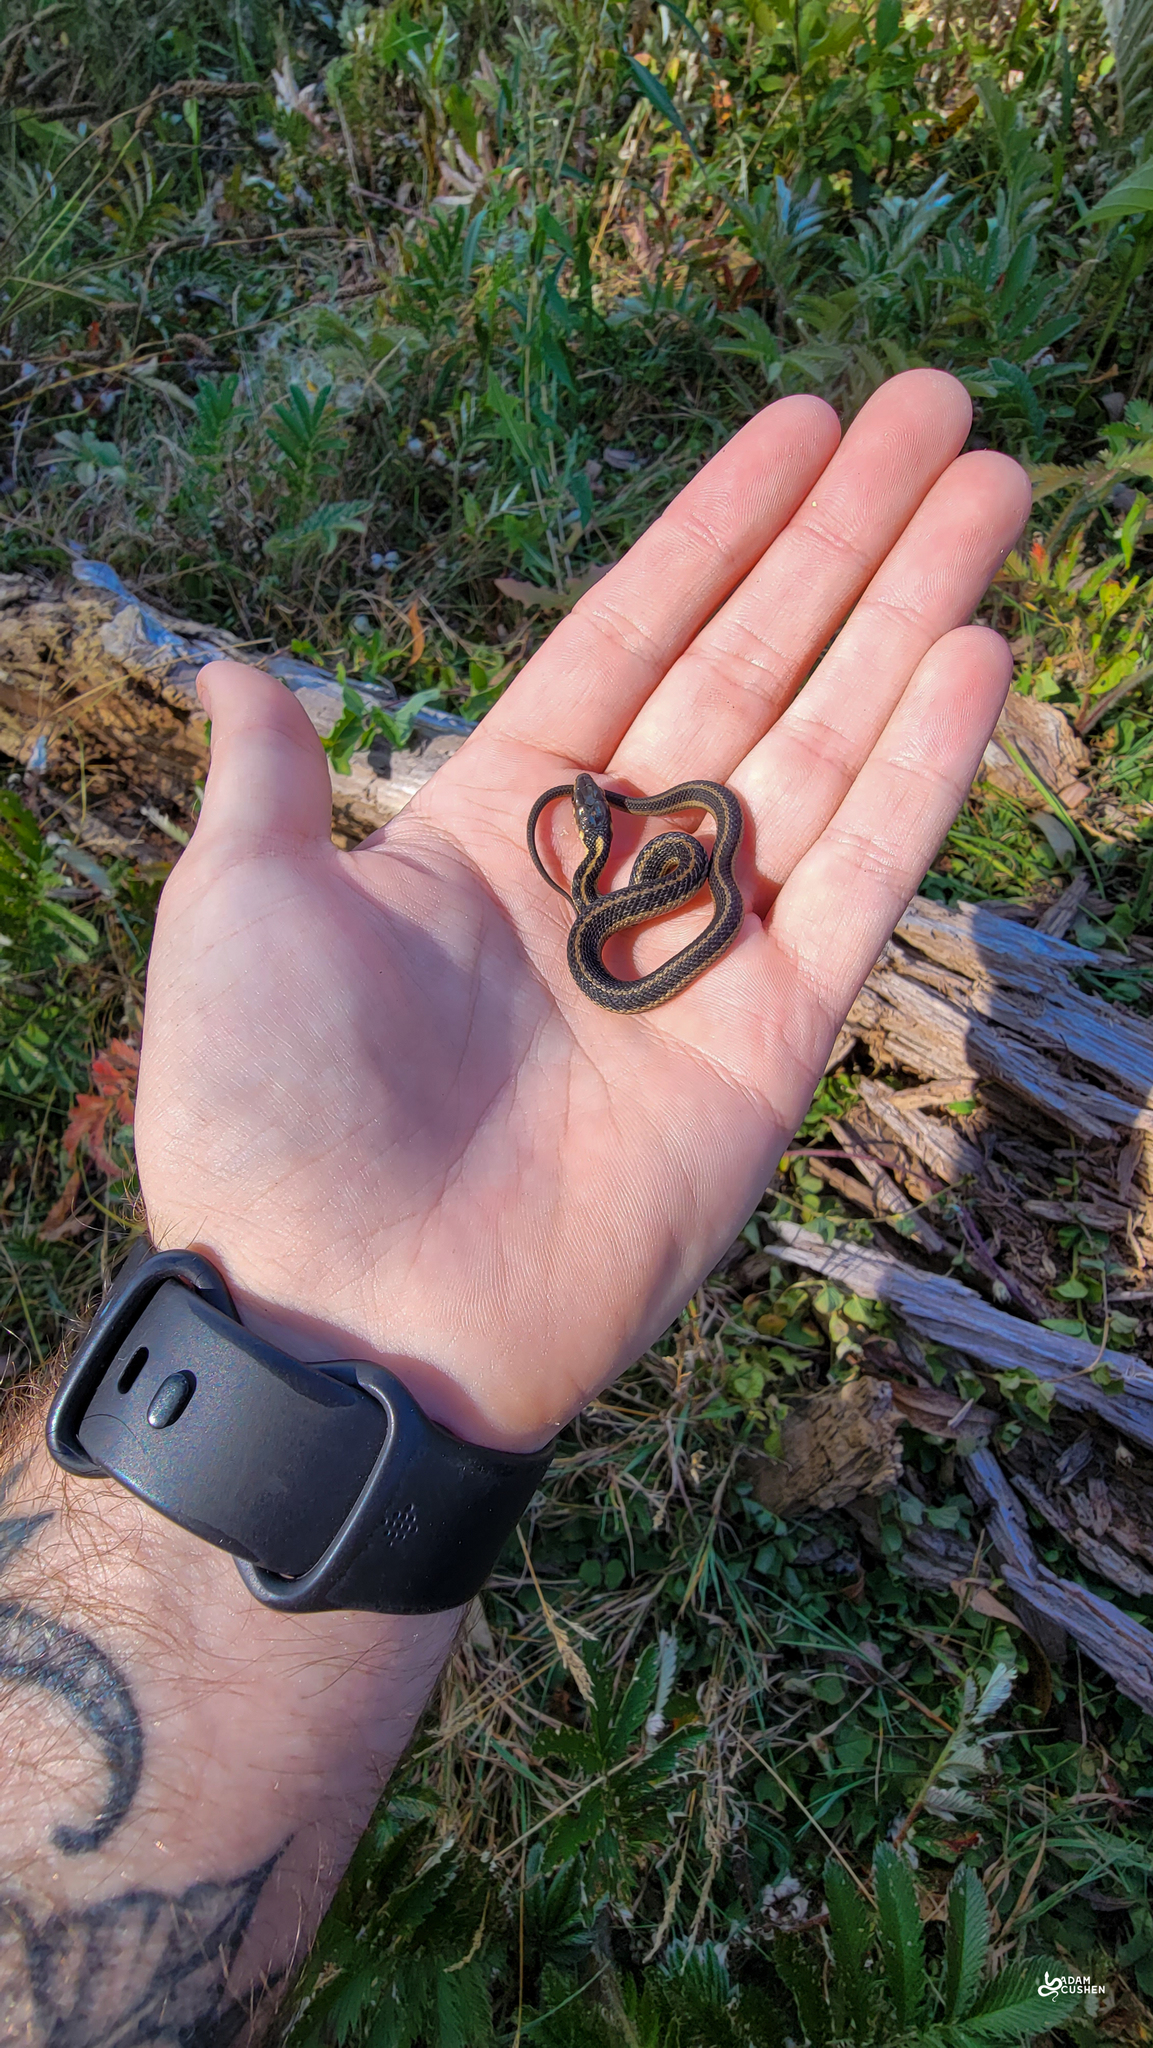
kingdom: Animalia
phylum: Chordata
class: Squamata
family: Colubridae
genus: Thamnophis
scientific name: Thamnophis sirtalis
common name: Common garter snake
